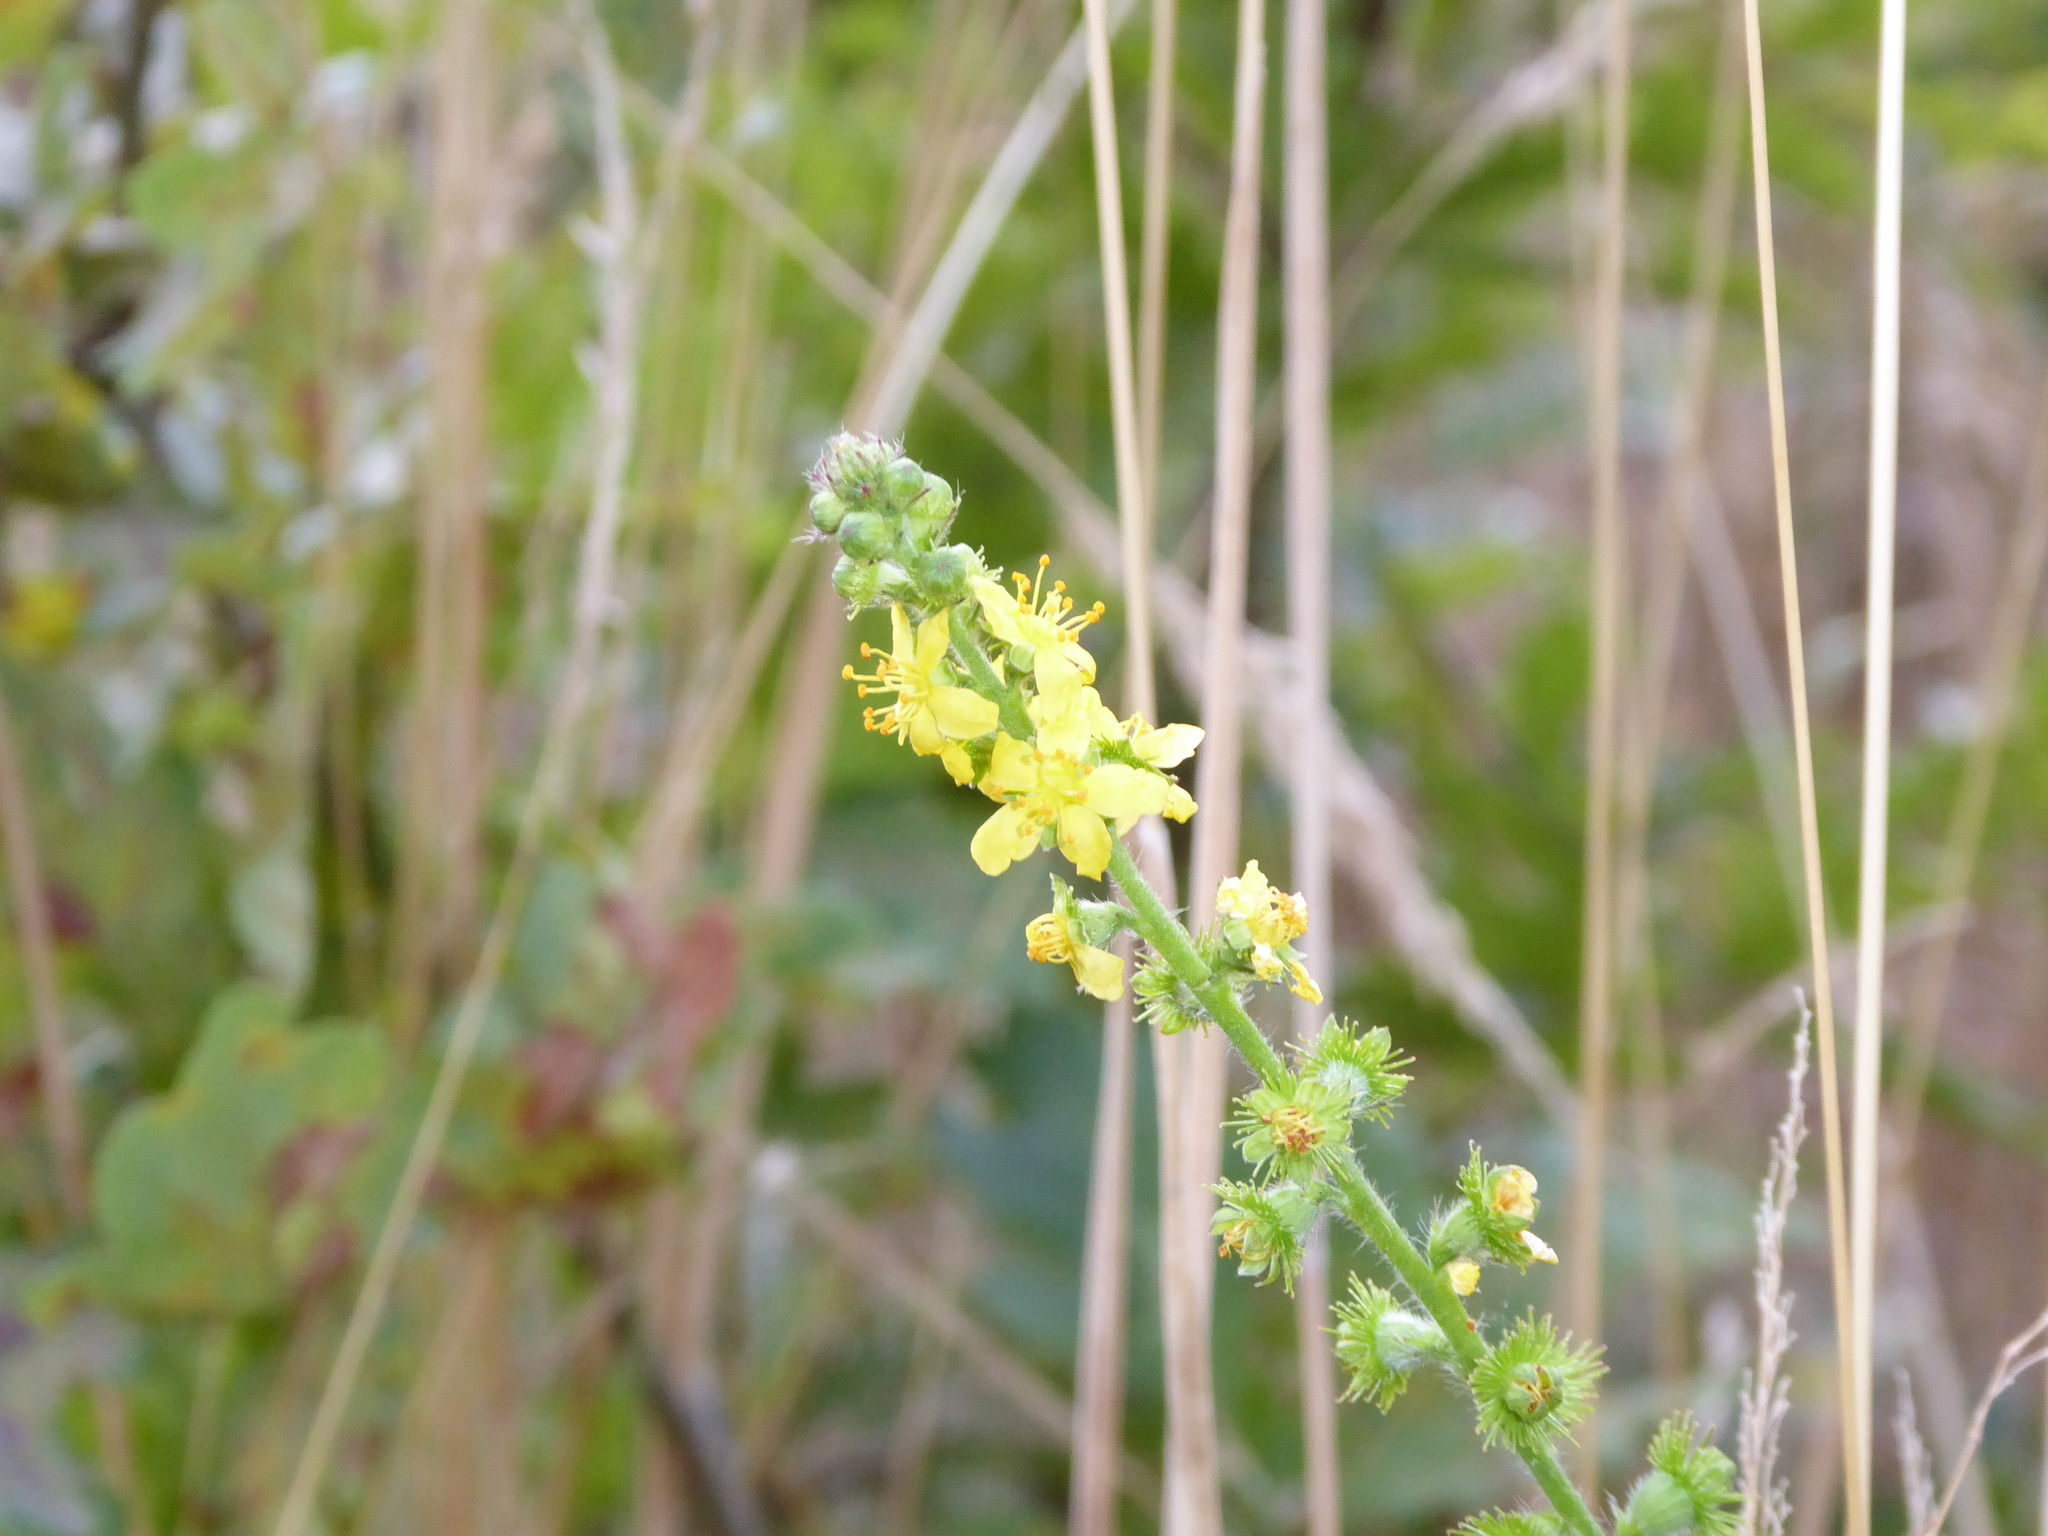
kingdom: Plantae
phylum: Tracheophyta
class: Magnoliopsida
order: Rosales
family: Rosaceae
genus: Agrimonia
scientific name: Agrimonia eupatoria
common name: Agrimony
